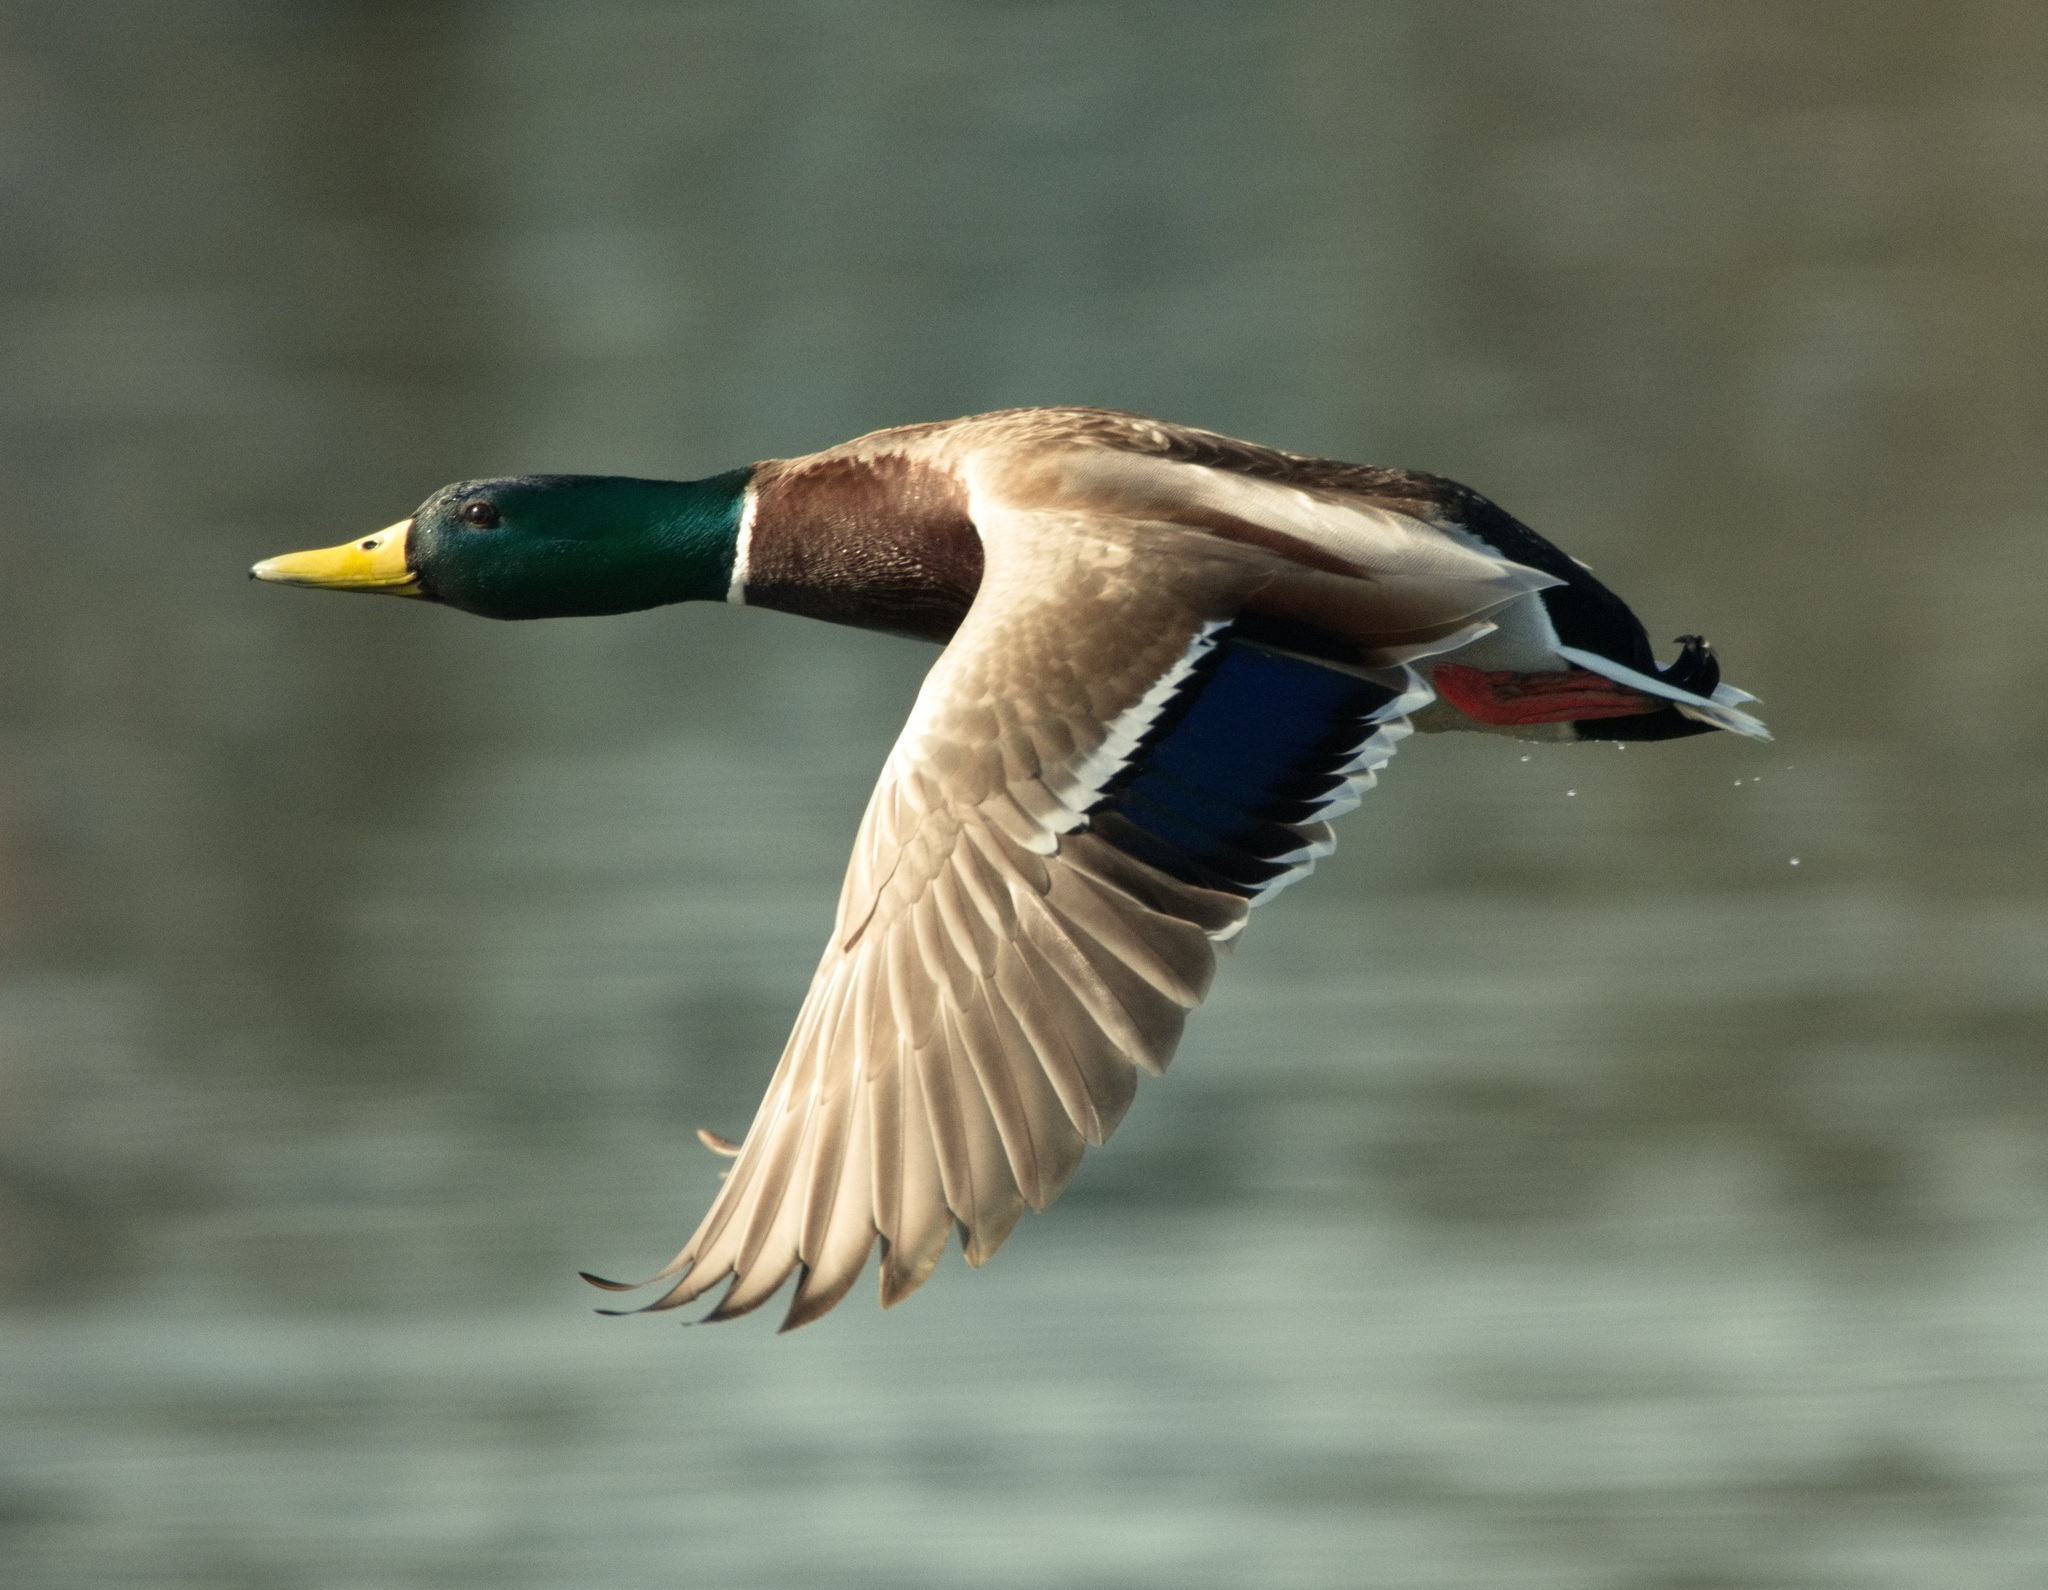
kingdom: Animalia
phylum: Chordata
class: Aves
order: Anseriformes
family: Anatidae
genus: Anas
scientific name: Anas platyrhynchos
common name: Mallard
